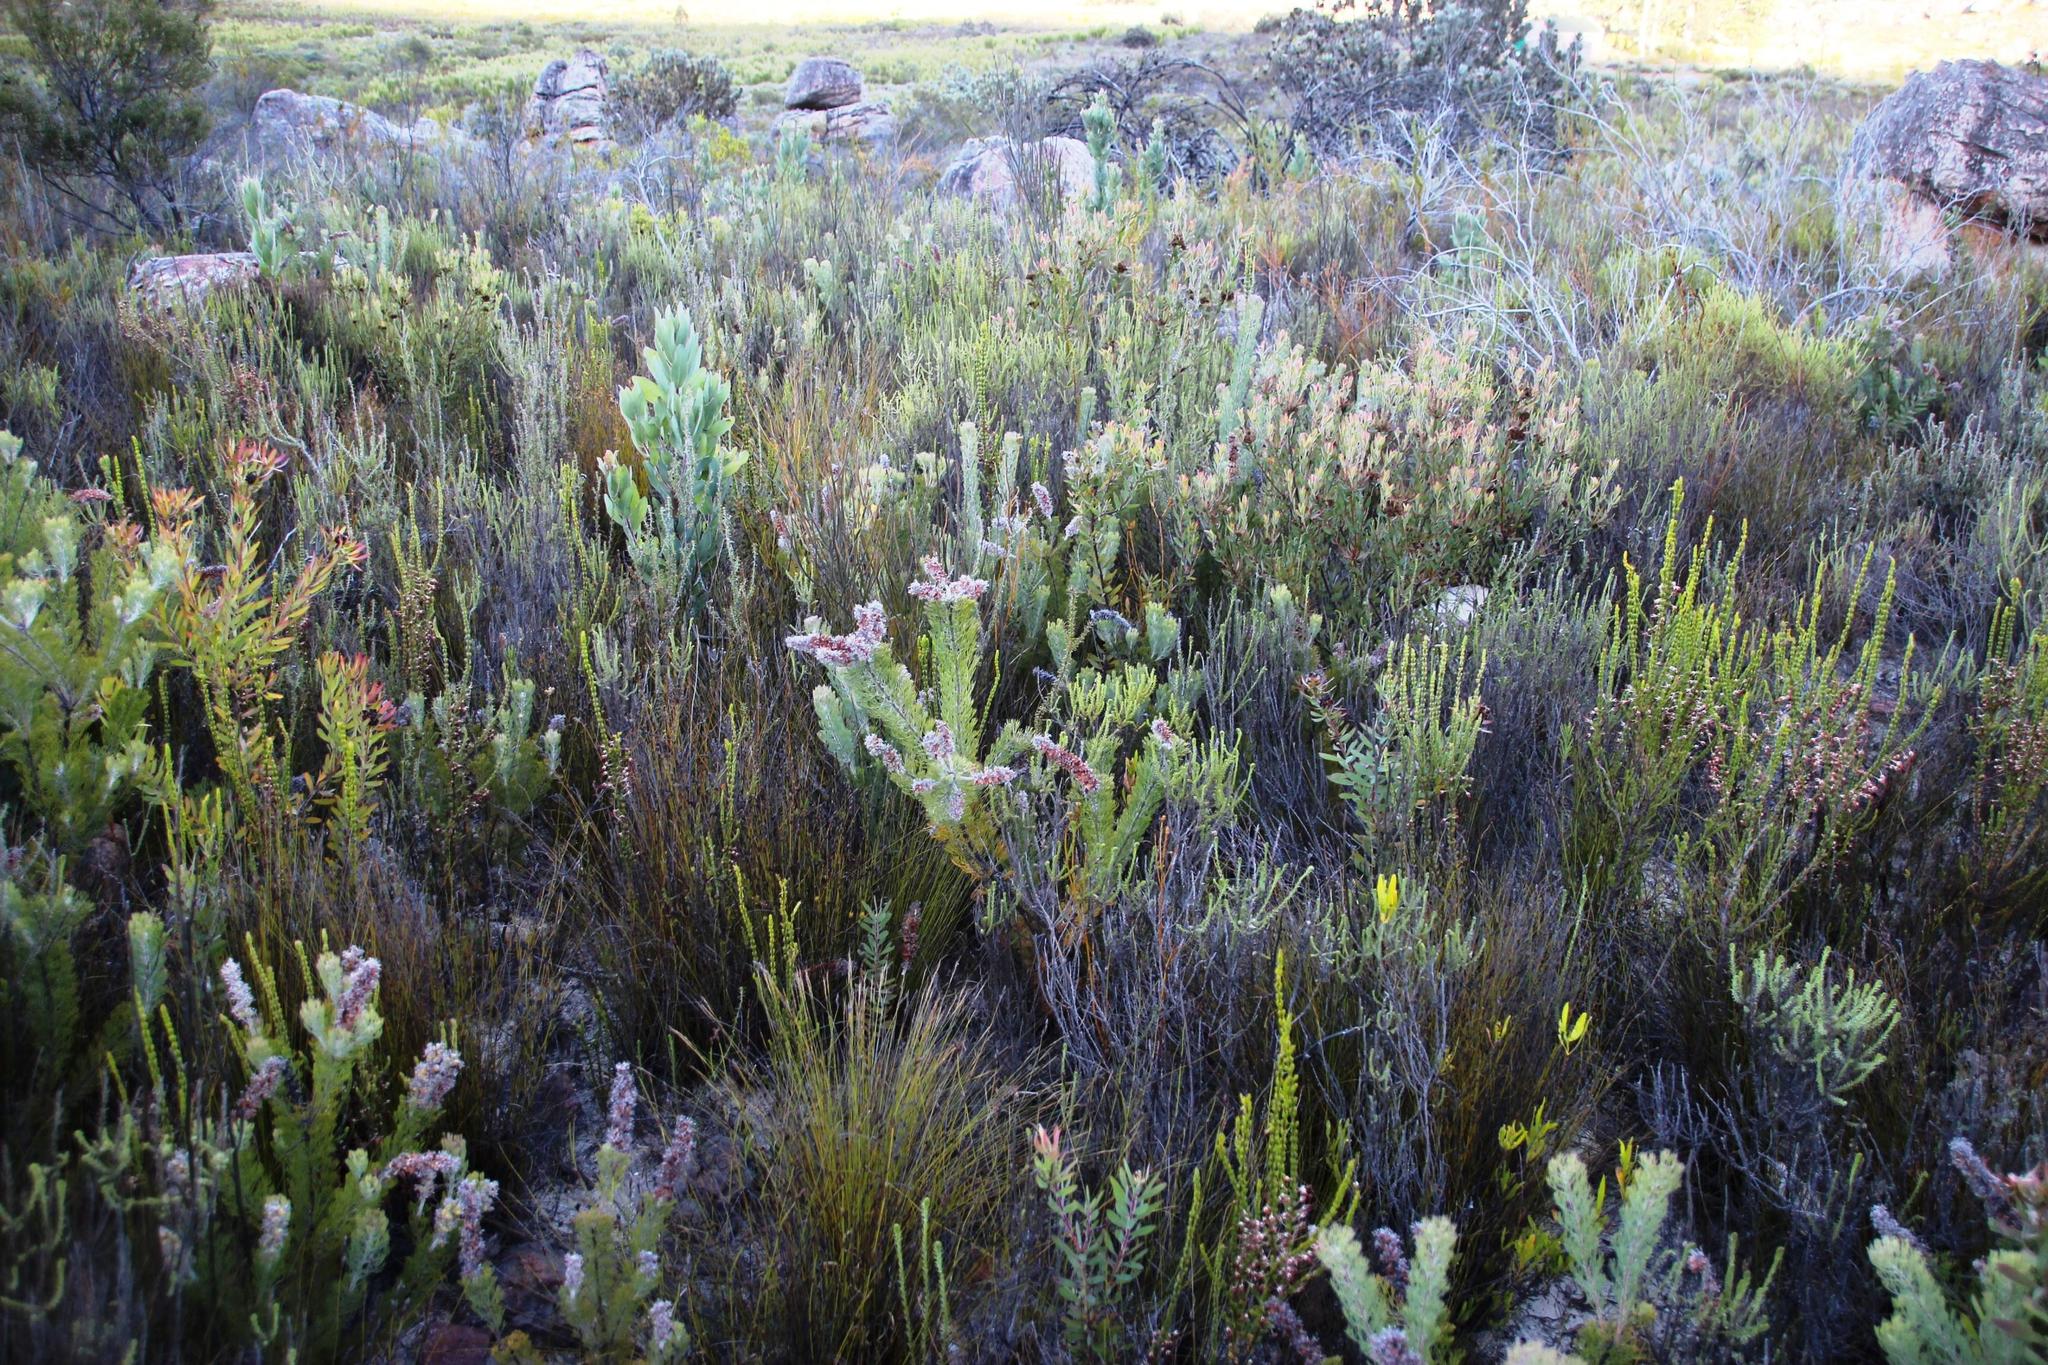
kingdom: Plantae
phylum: Tracheophyta
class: Magnoliopsida
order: Proteales
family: Proteaceae
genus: Paranomus
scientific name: Paranomus lagopus
